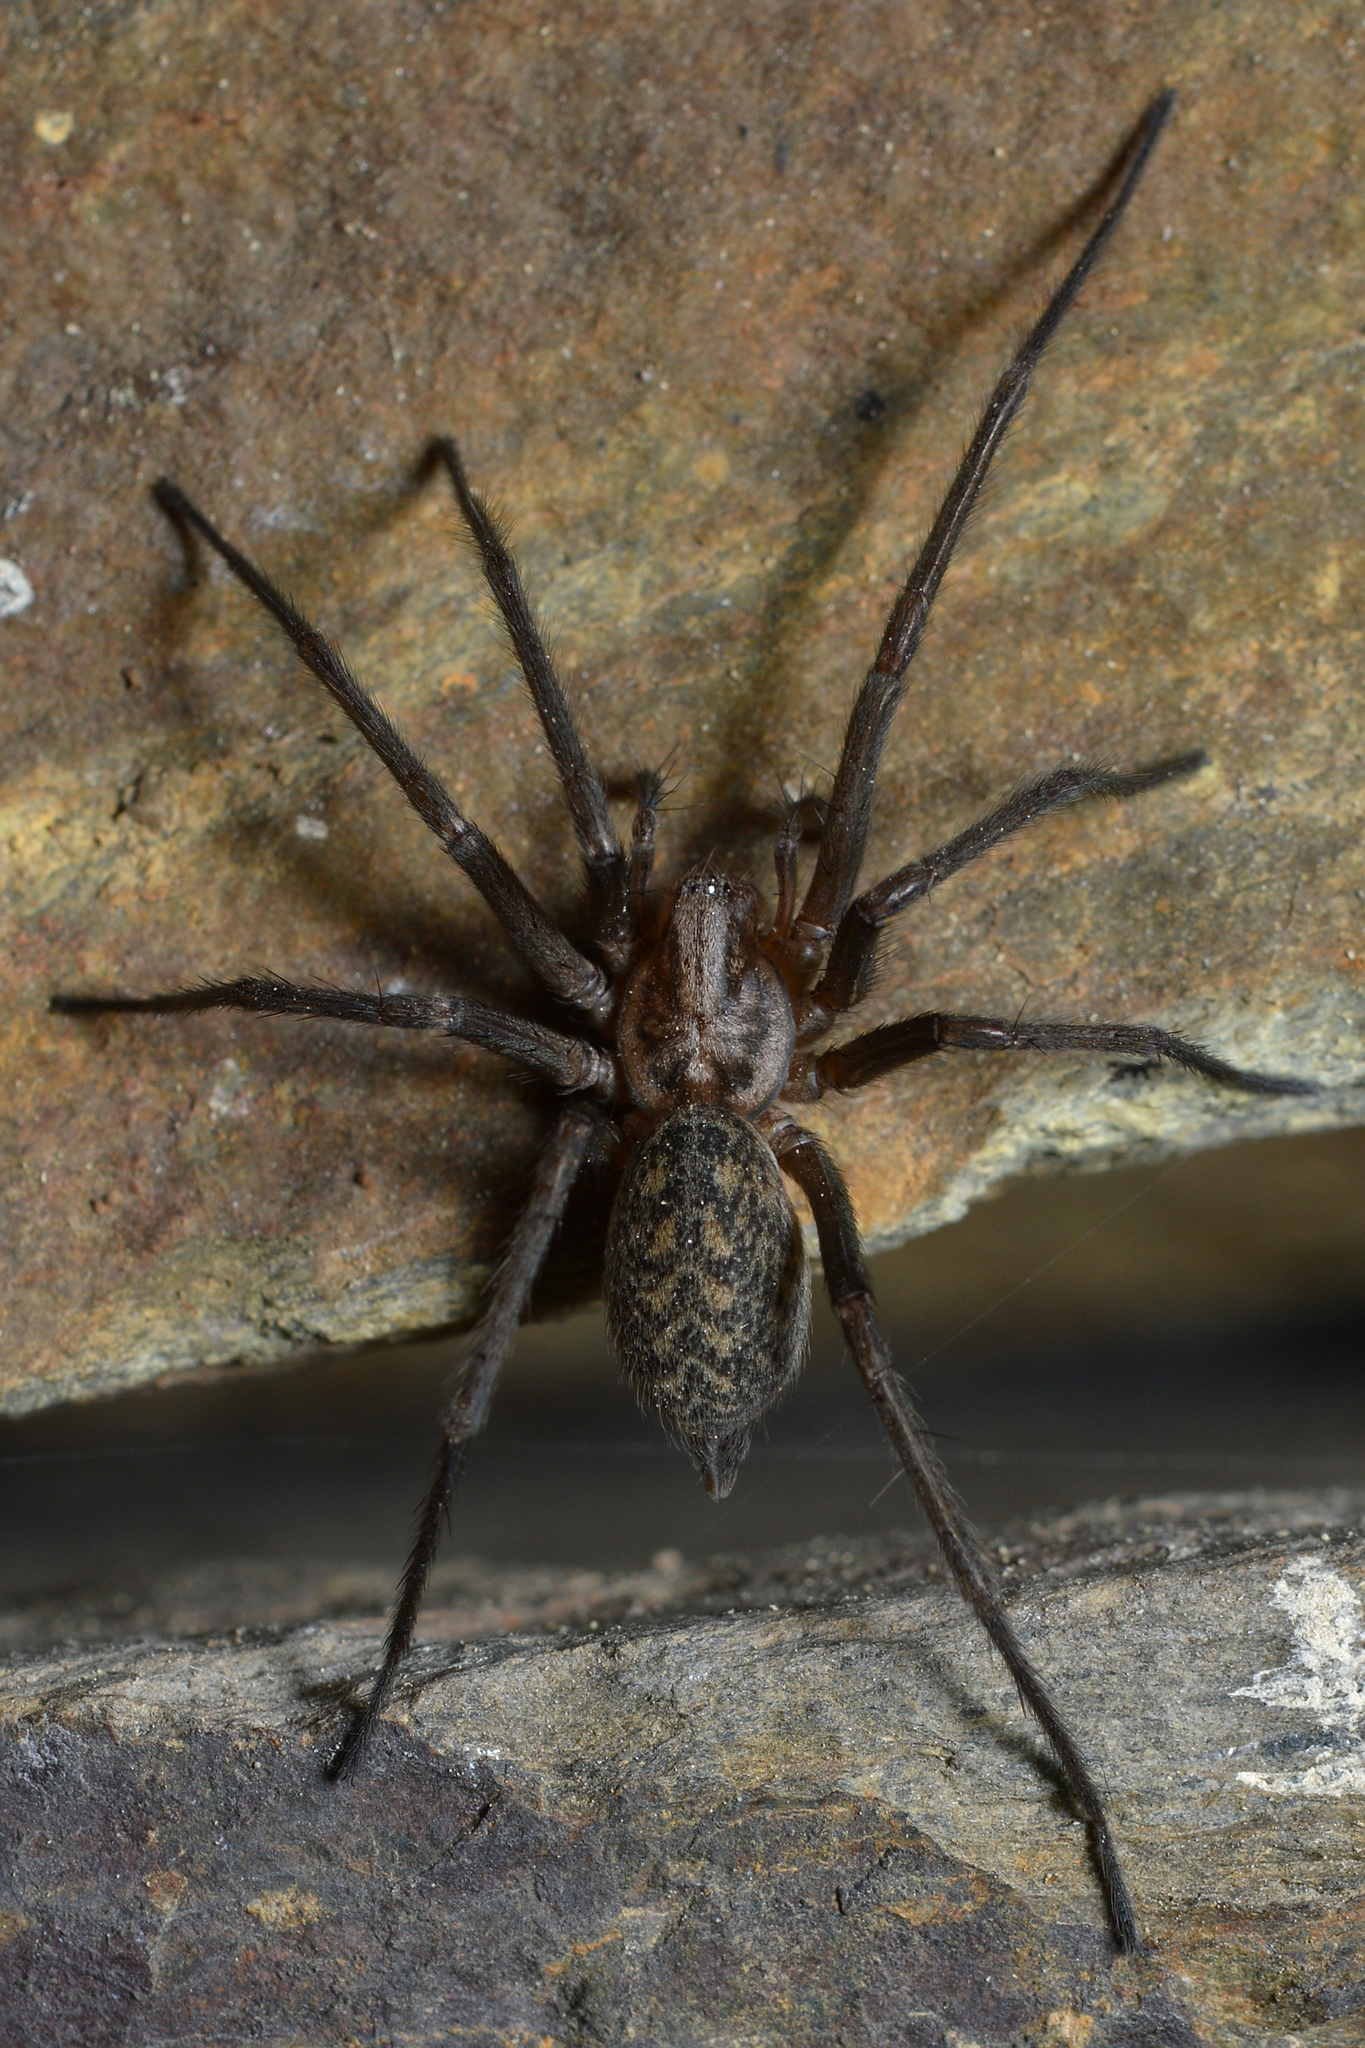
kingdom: Animalia
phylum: Arthropoda
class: Arachnida
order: Araneae
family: Agelenidae
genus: Eratigena
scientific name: Eratigena atrica
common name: Giant house spider
